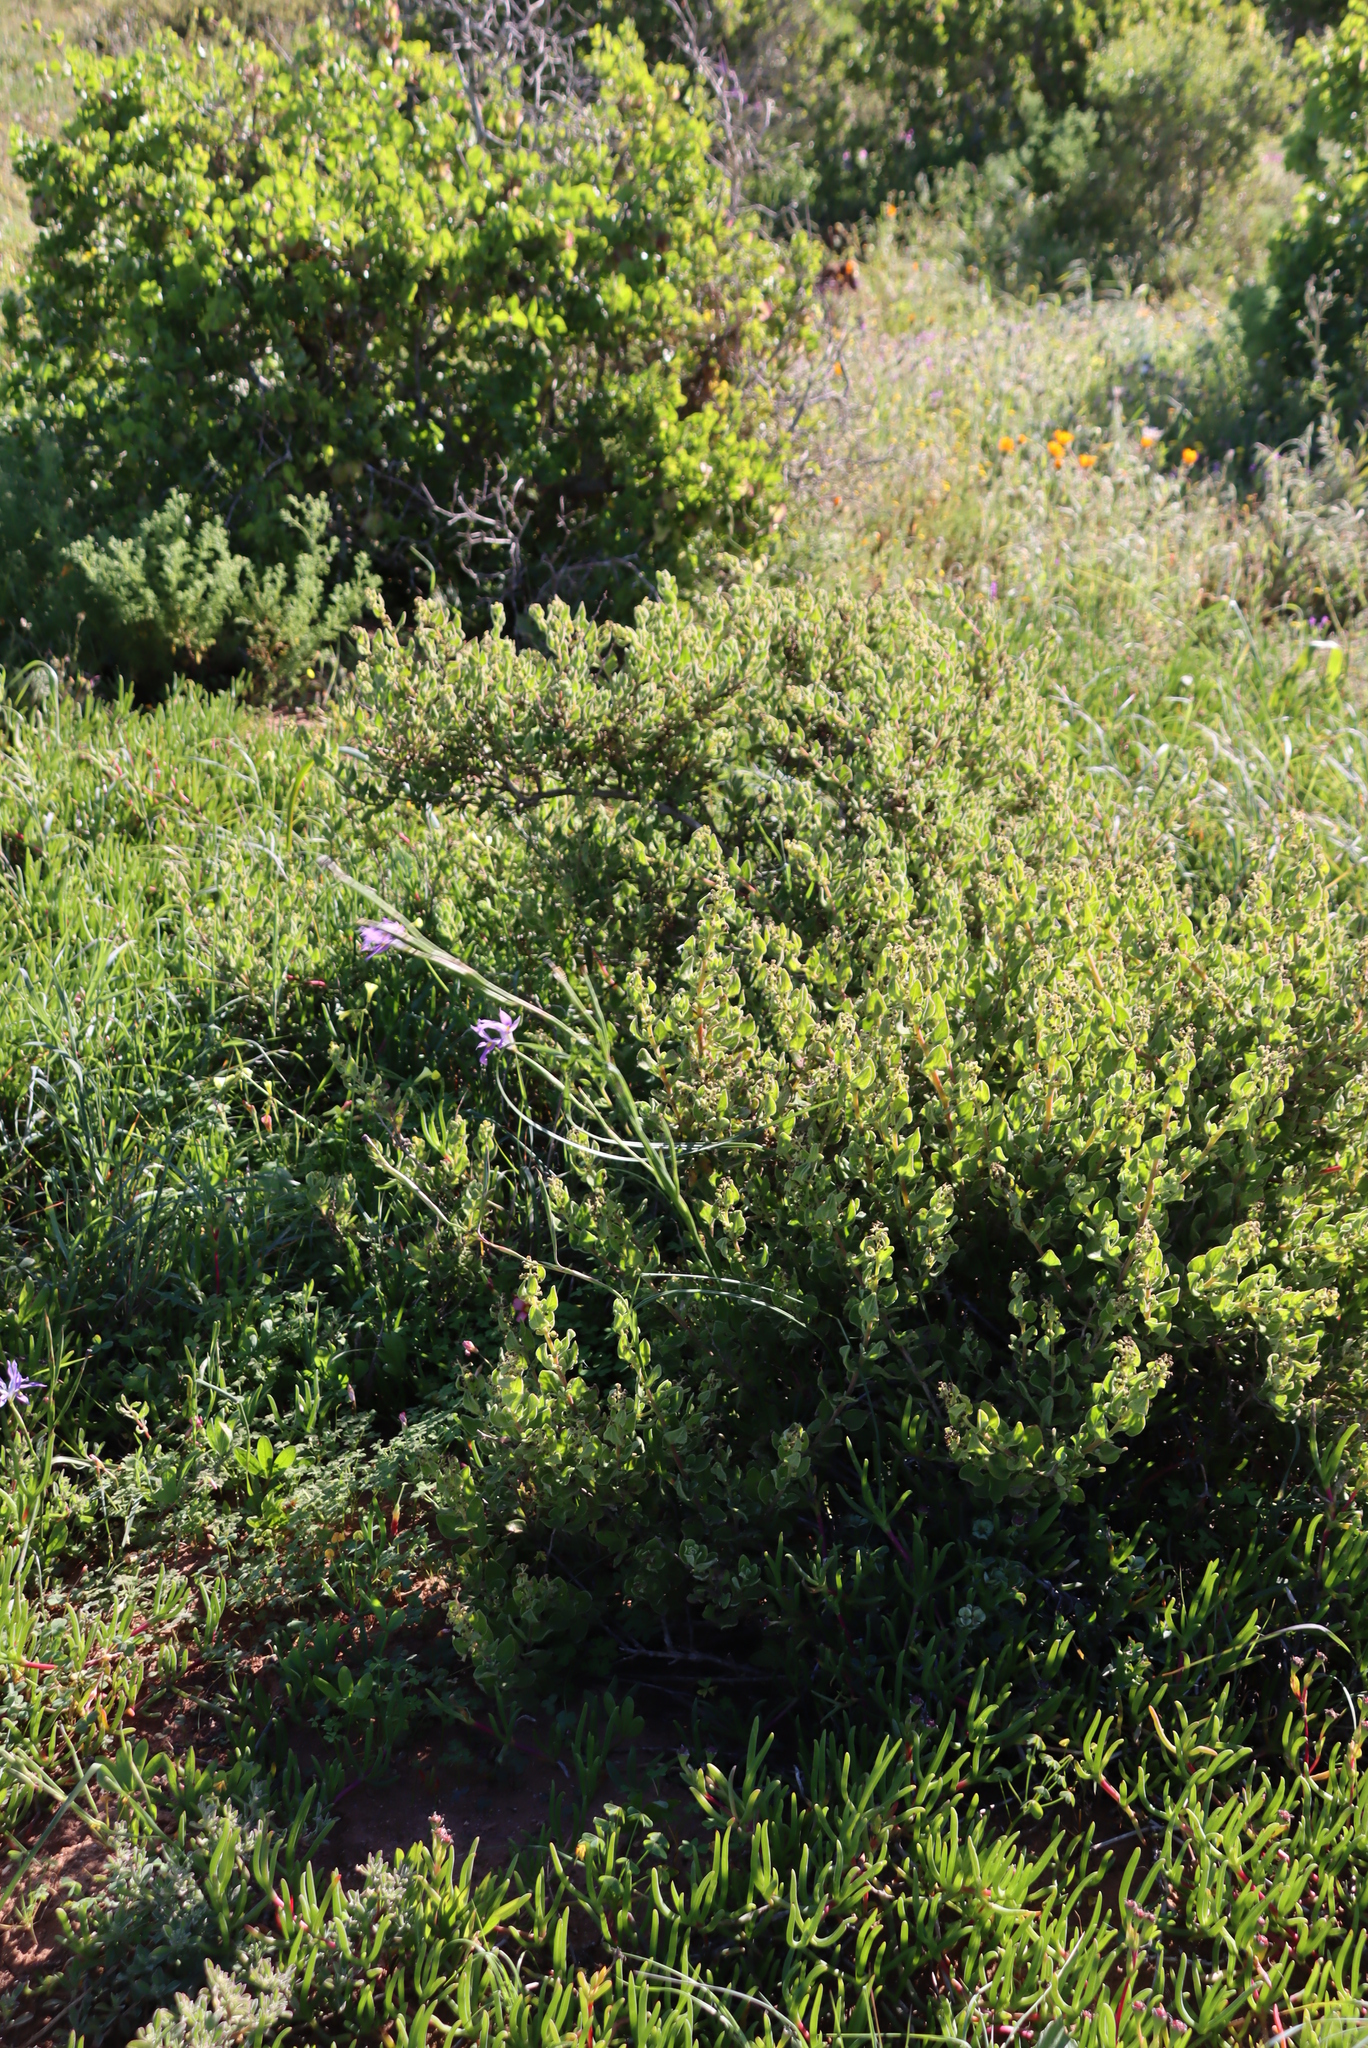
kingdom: Plantae
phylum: Tracheophyta
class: Liliopsida
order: Asparagales
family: Iridaceae
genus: Moraea
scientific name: Moraea fugax
